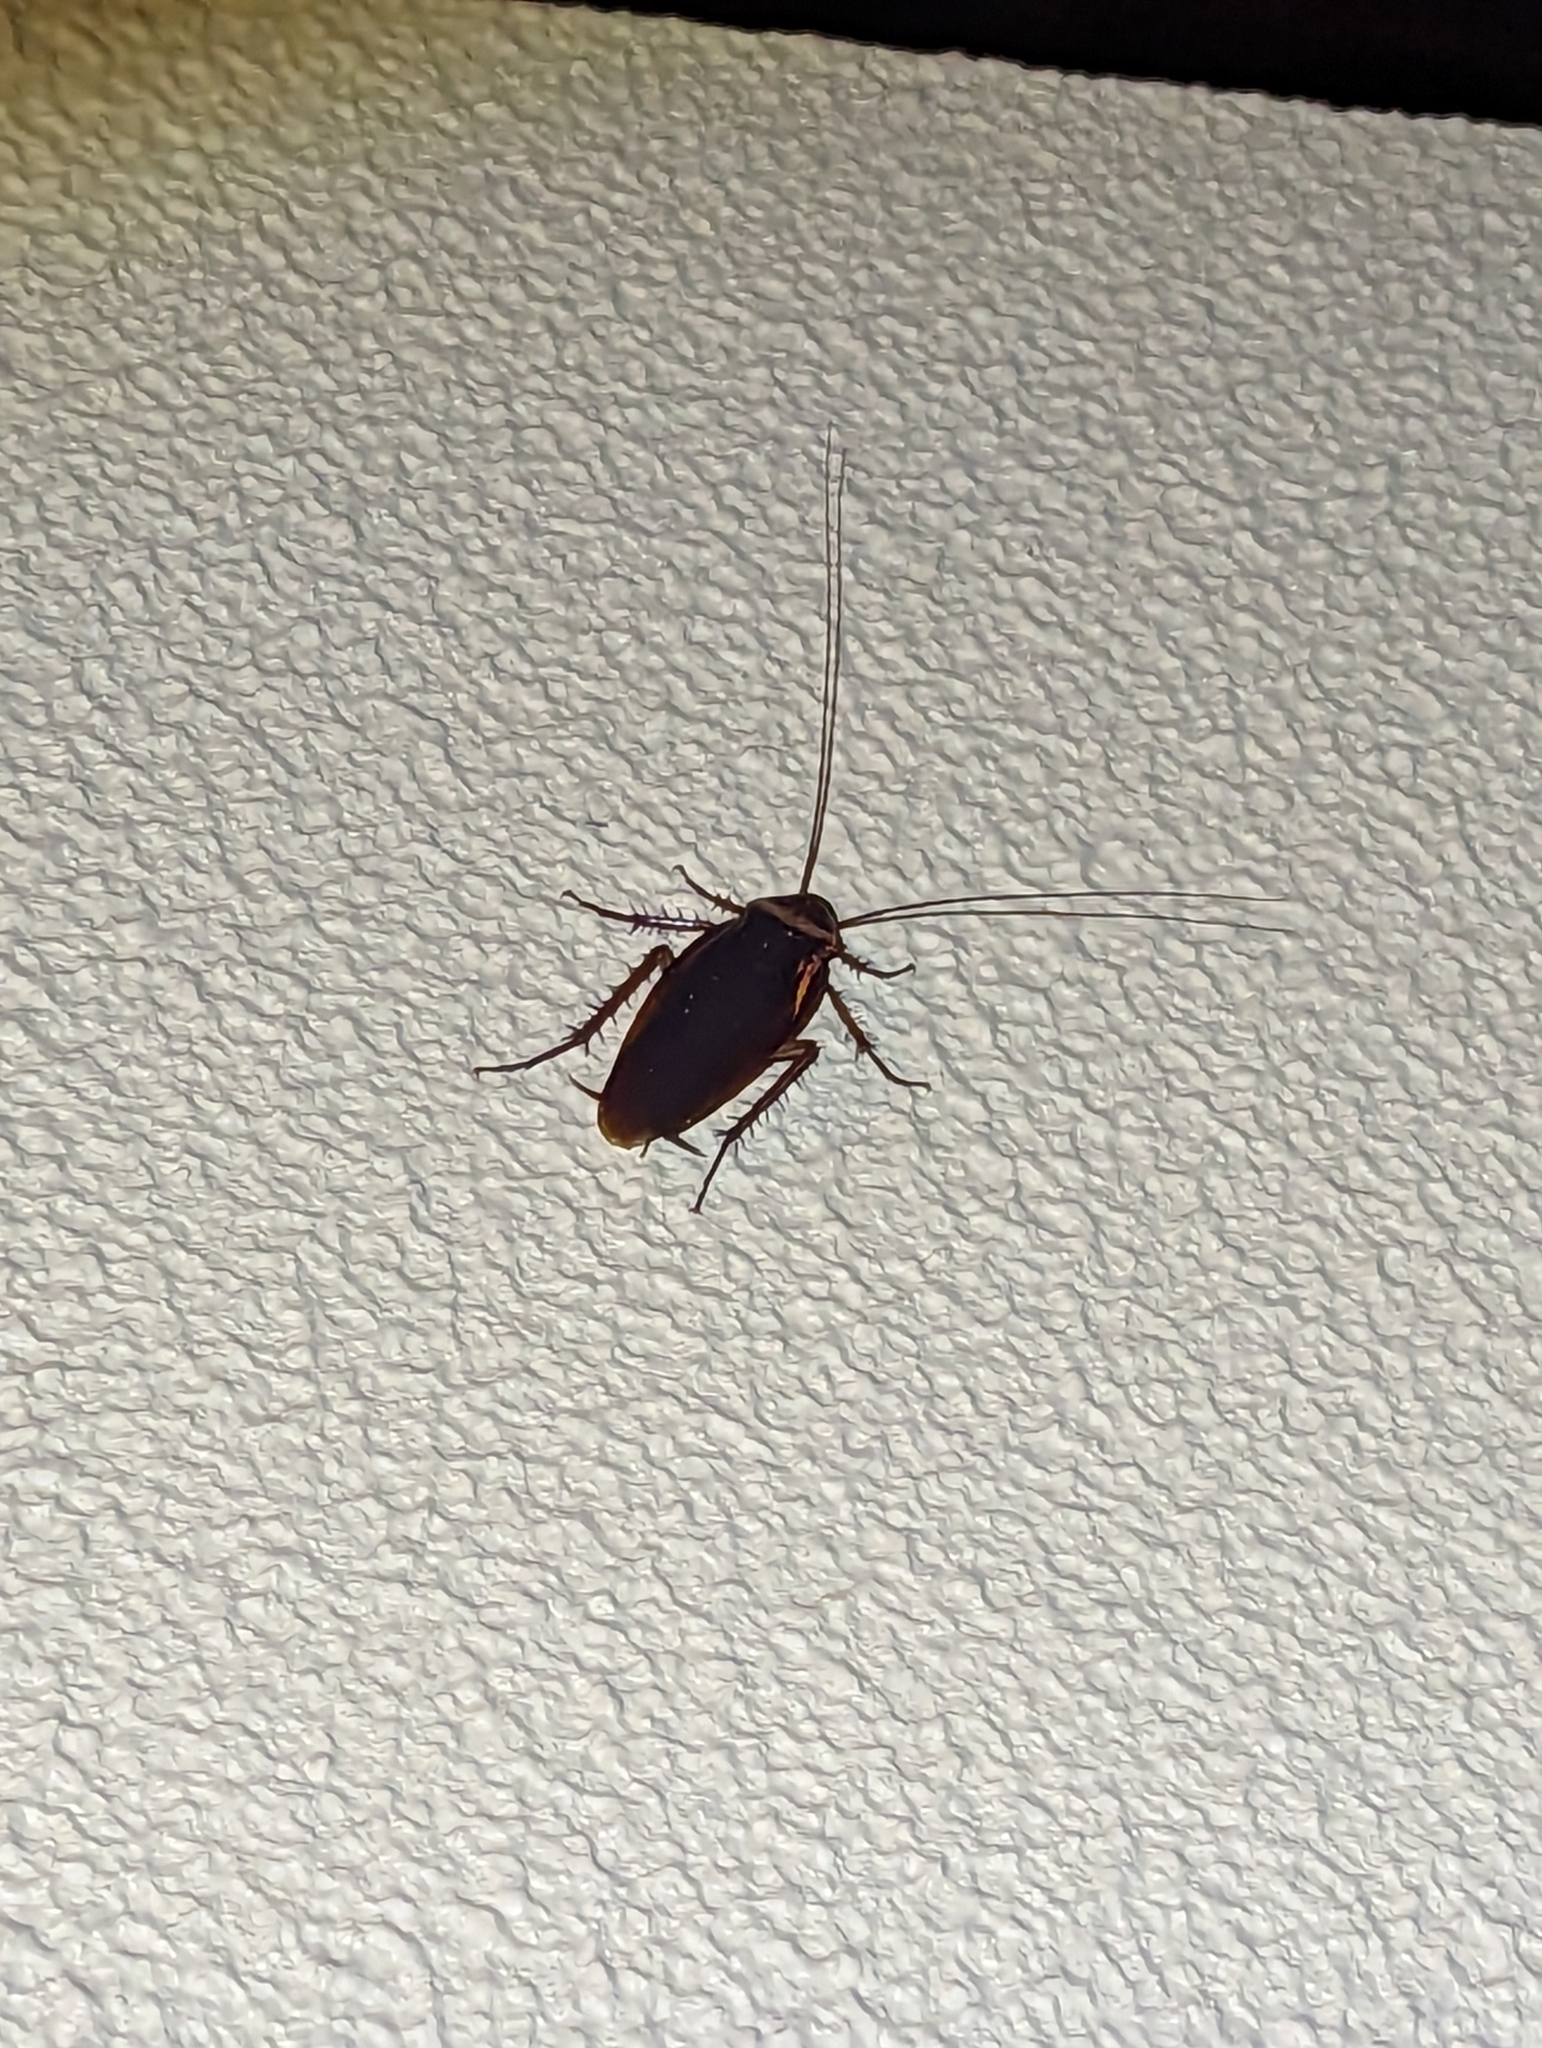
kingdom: Animalia
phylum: Arthropoda
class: Insecta
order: Blattodea
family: Blattidae
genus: Periplaneta
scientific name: Periplaneta australasiae
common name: Australian cockroach
